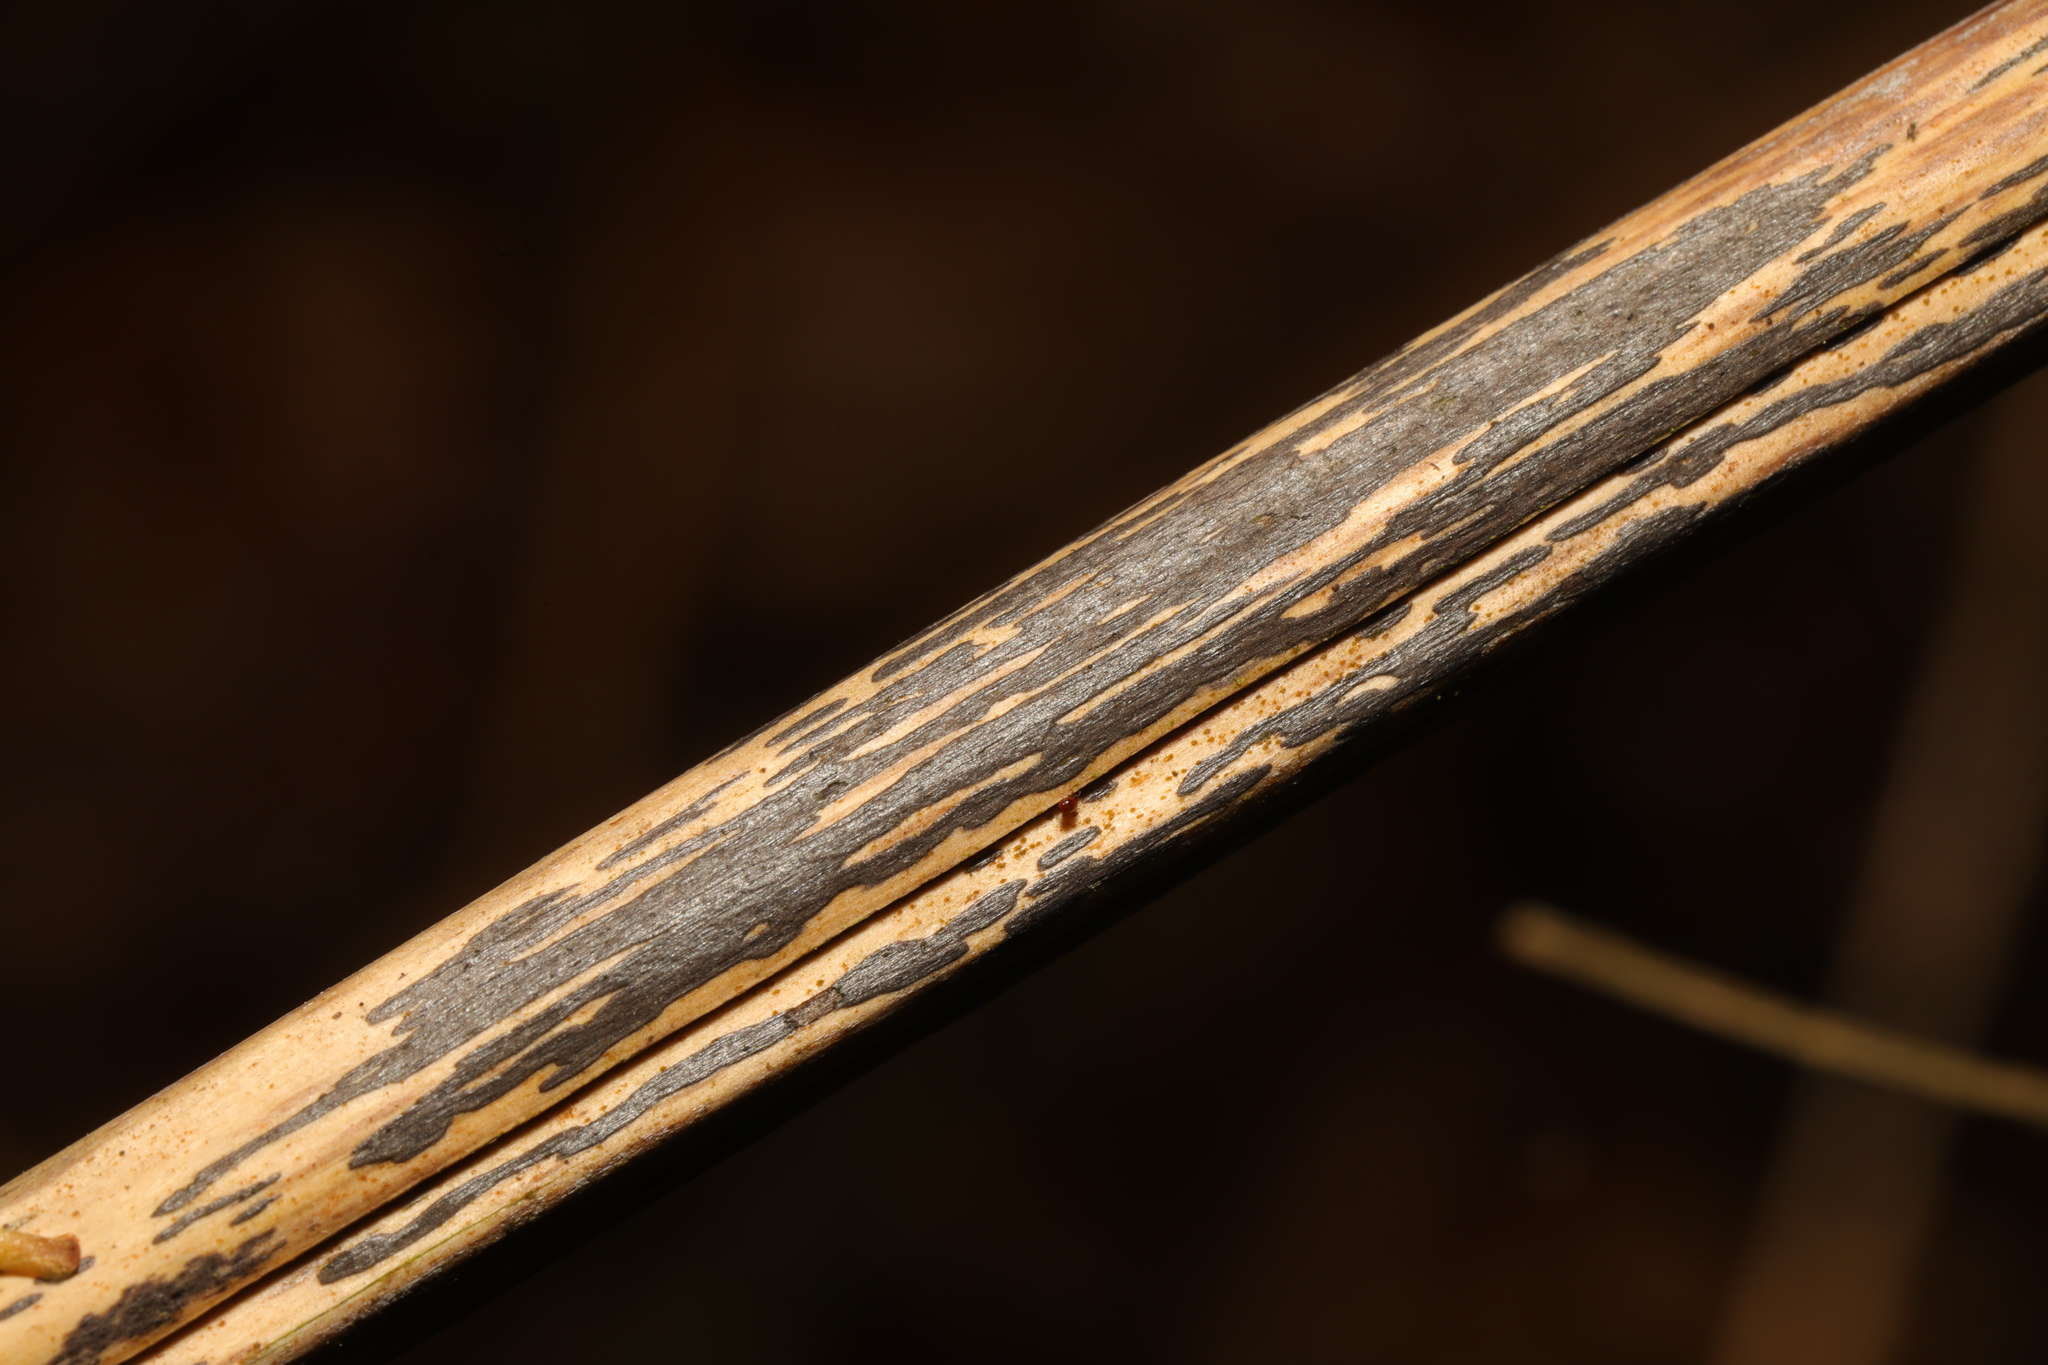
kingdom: Fungi
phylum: Ascomycota
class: Dothideomycetes
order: Pleosporales
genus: Rhopographus
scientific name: Rhopographus filicinus
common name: Bracken map
